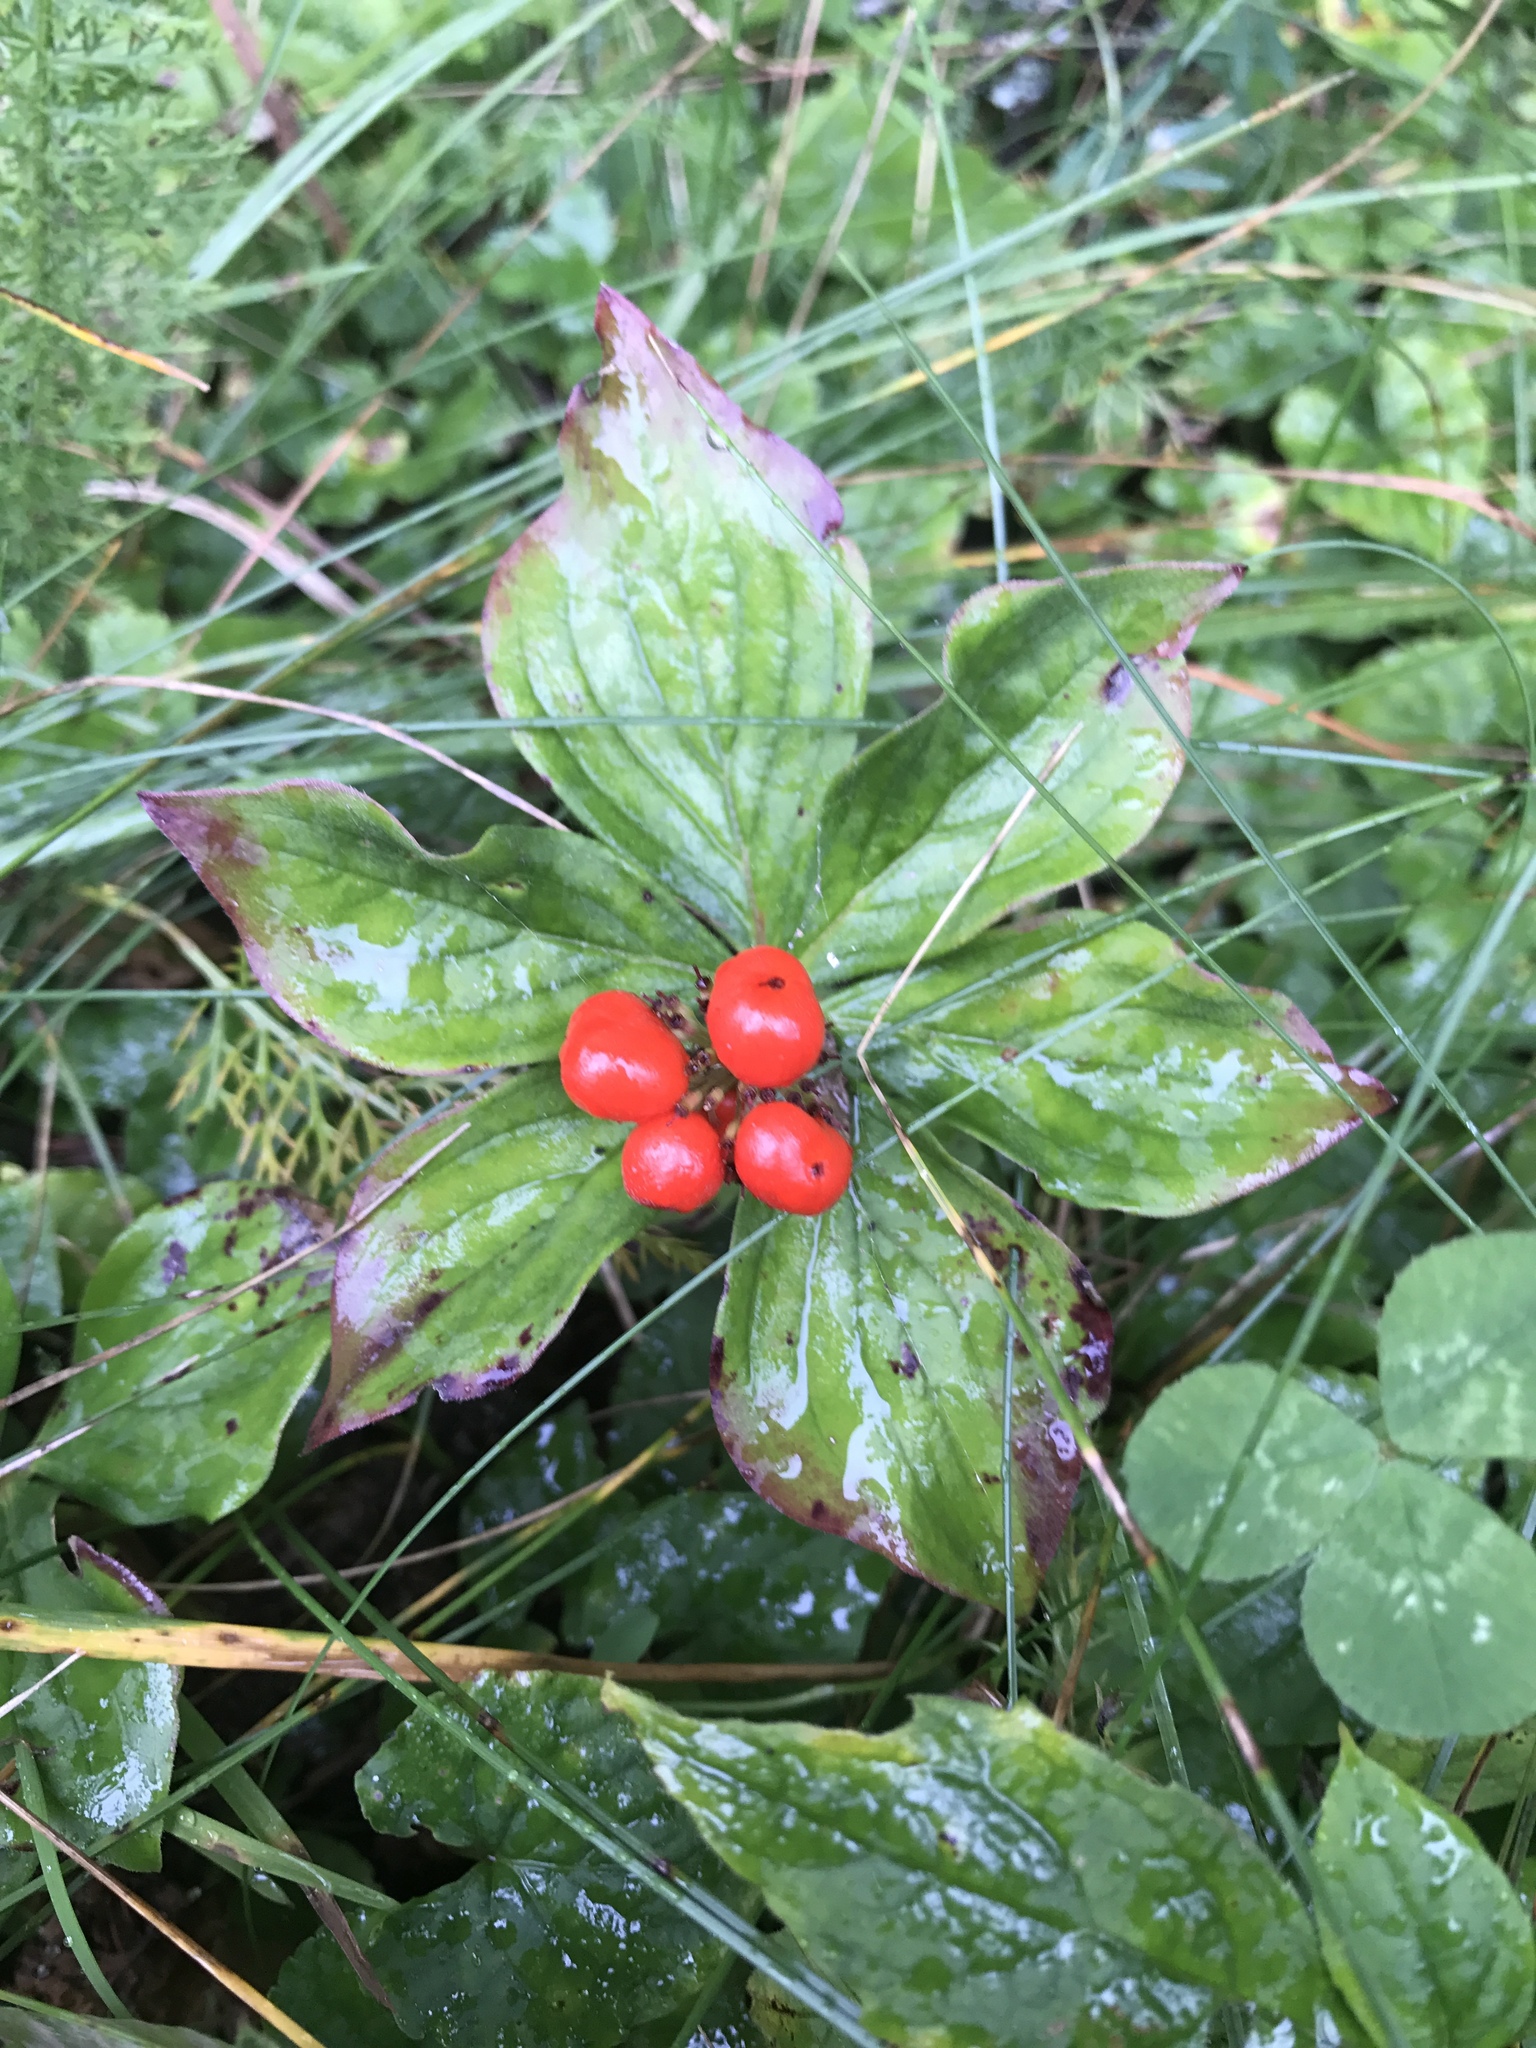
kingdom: Plantae
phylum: Tracheophyta
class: Magnoliopsida
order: Cornales
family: Cornaceae
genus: Cornus
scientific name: Cornus canadensis
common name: Creeping dogwood
